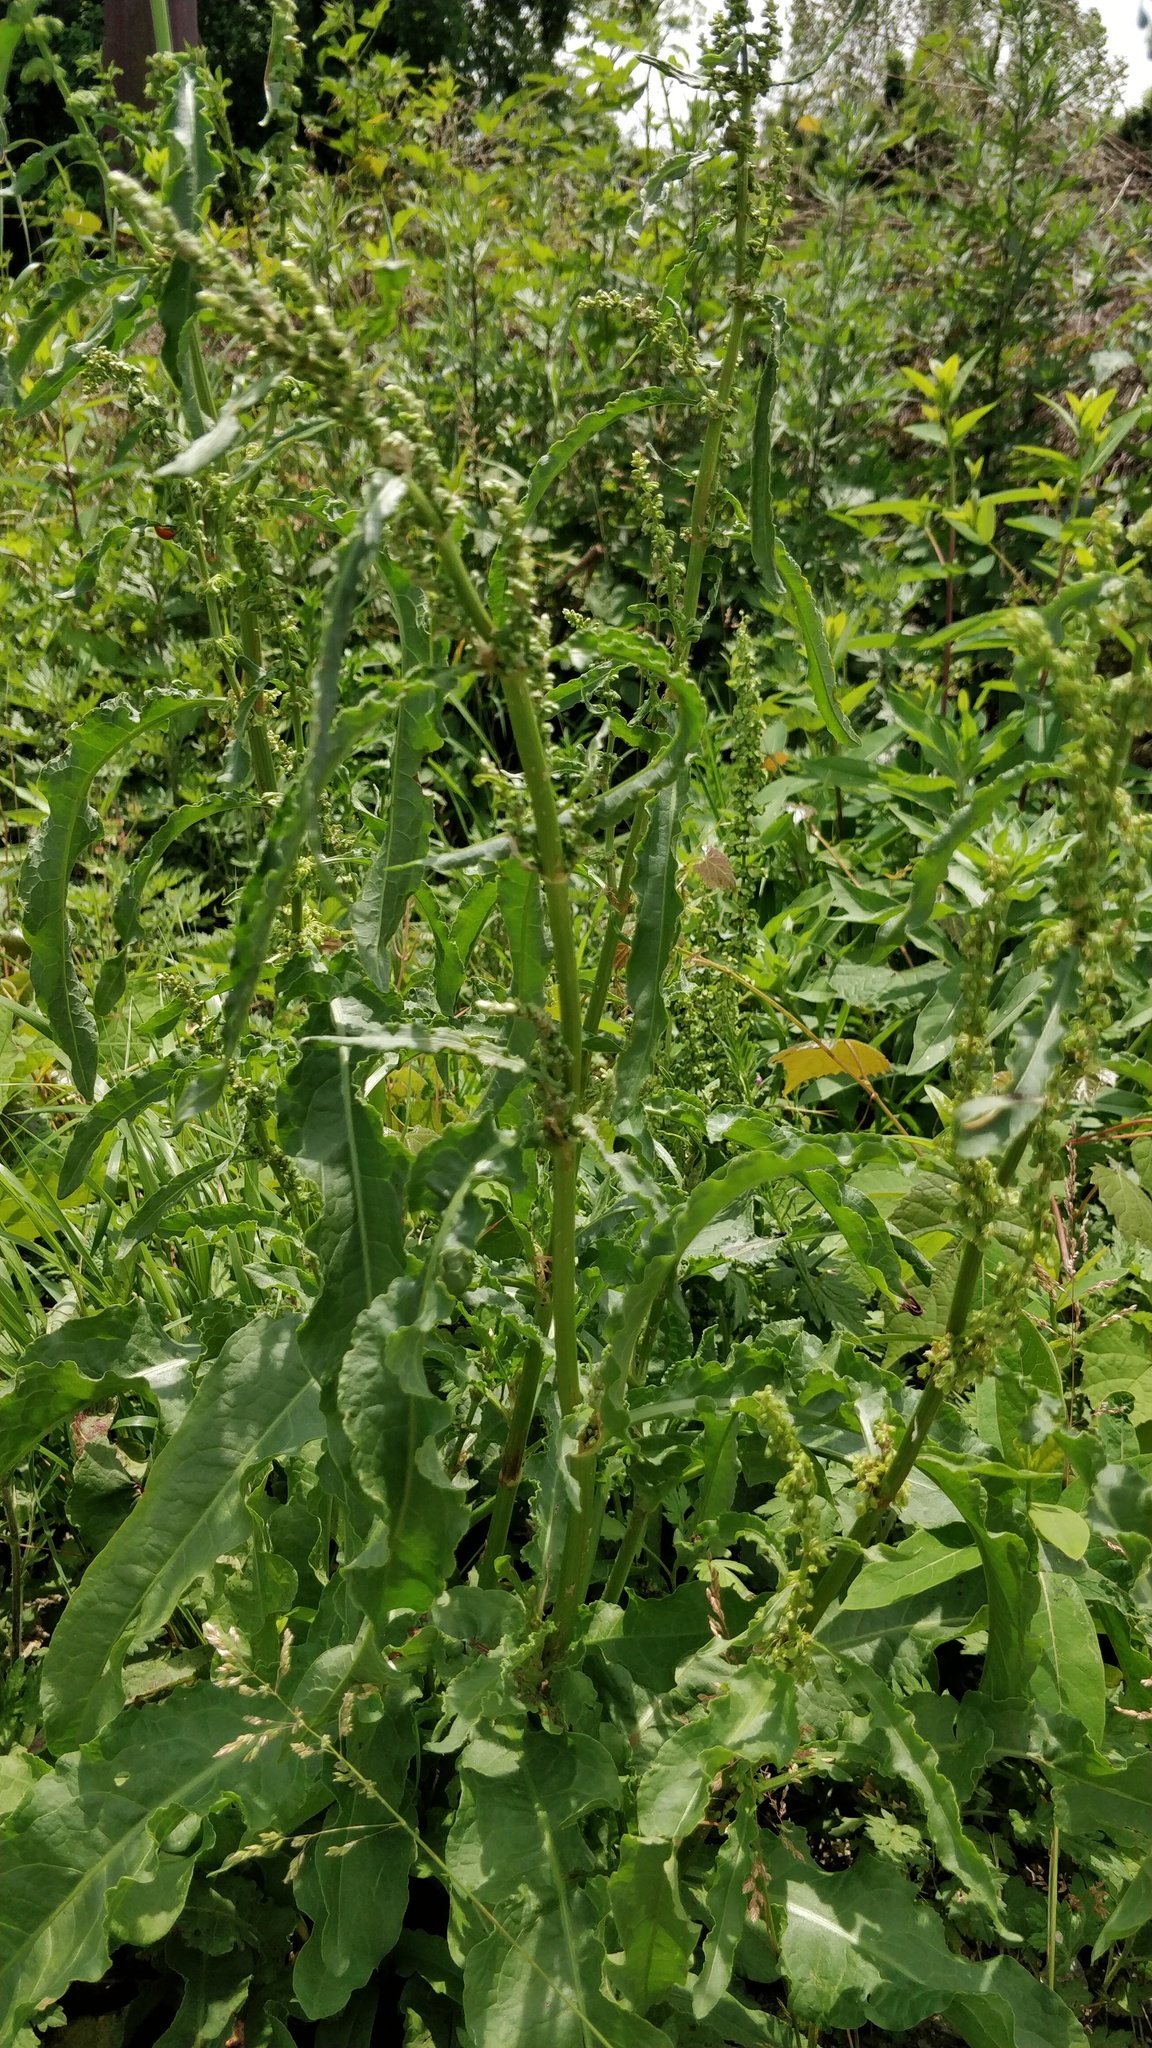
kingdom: Plantae
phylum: Tracheophyta
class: Magnoliopsida
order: Caryophyllales
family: Polygonaceae
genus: Rumex
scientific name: Rumex crispus
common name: Curled dock
